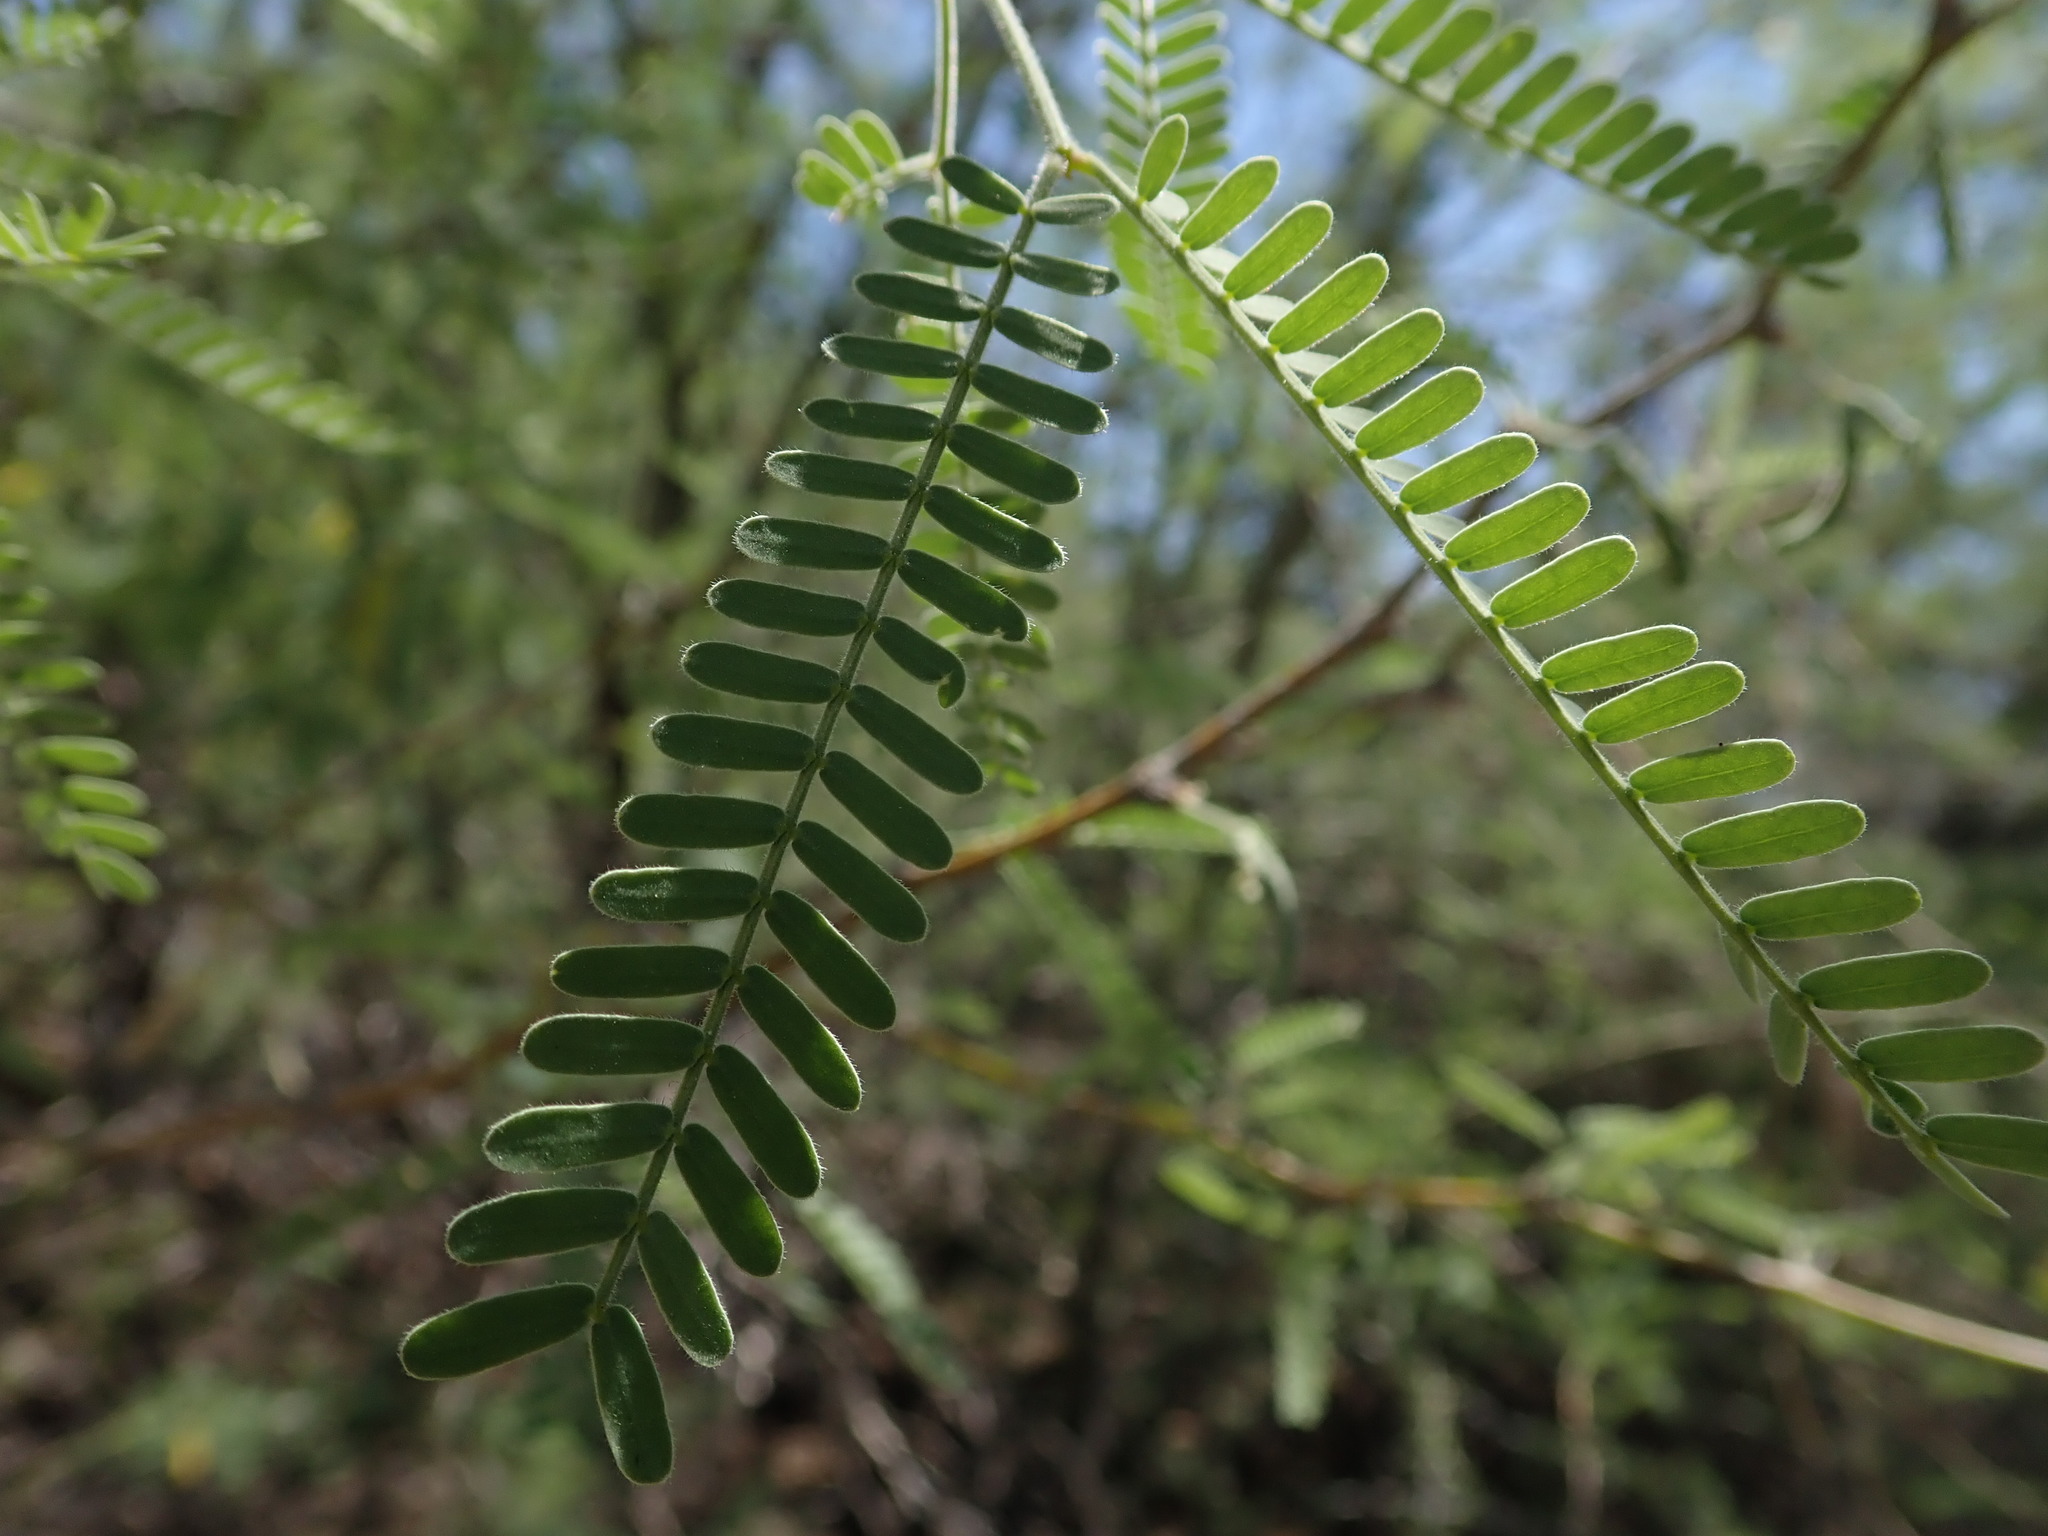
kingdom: Plantae
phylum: Tracheophyta
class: Magnoliopsida
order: Fabales
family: Fabaceae
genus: Prosopis
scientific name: Prosopis velutina
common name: Velvet mesquite
